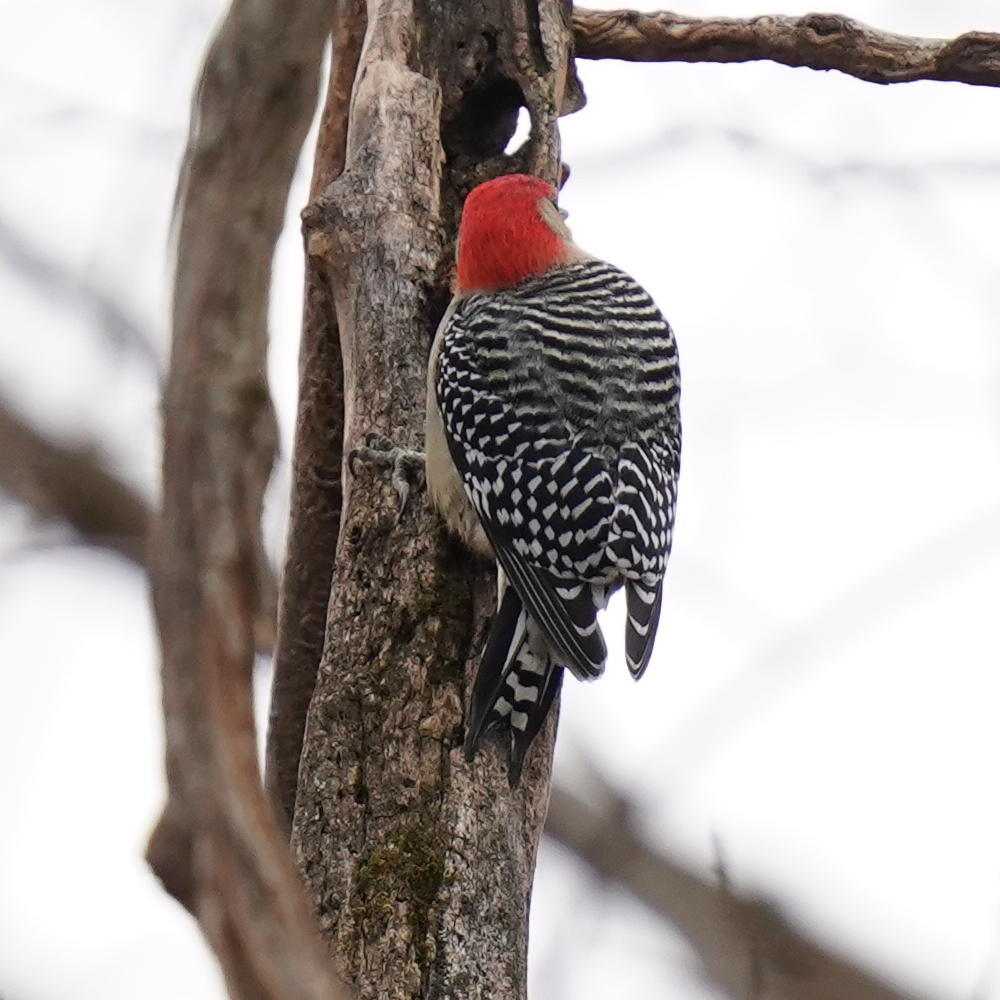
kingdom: Animalia
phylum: Chordata
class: Aves
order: Piciformes
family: Picidae
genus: Melanerpes
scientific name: Melanerpes carolinus
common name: Red-bellied woodpecker
